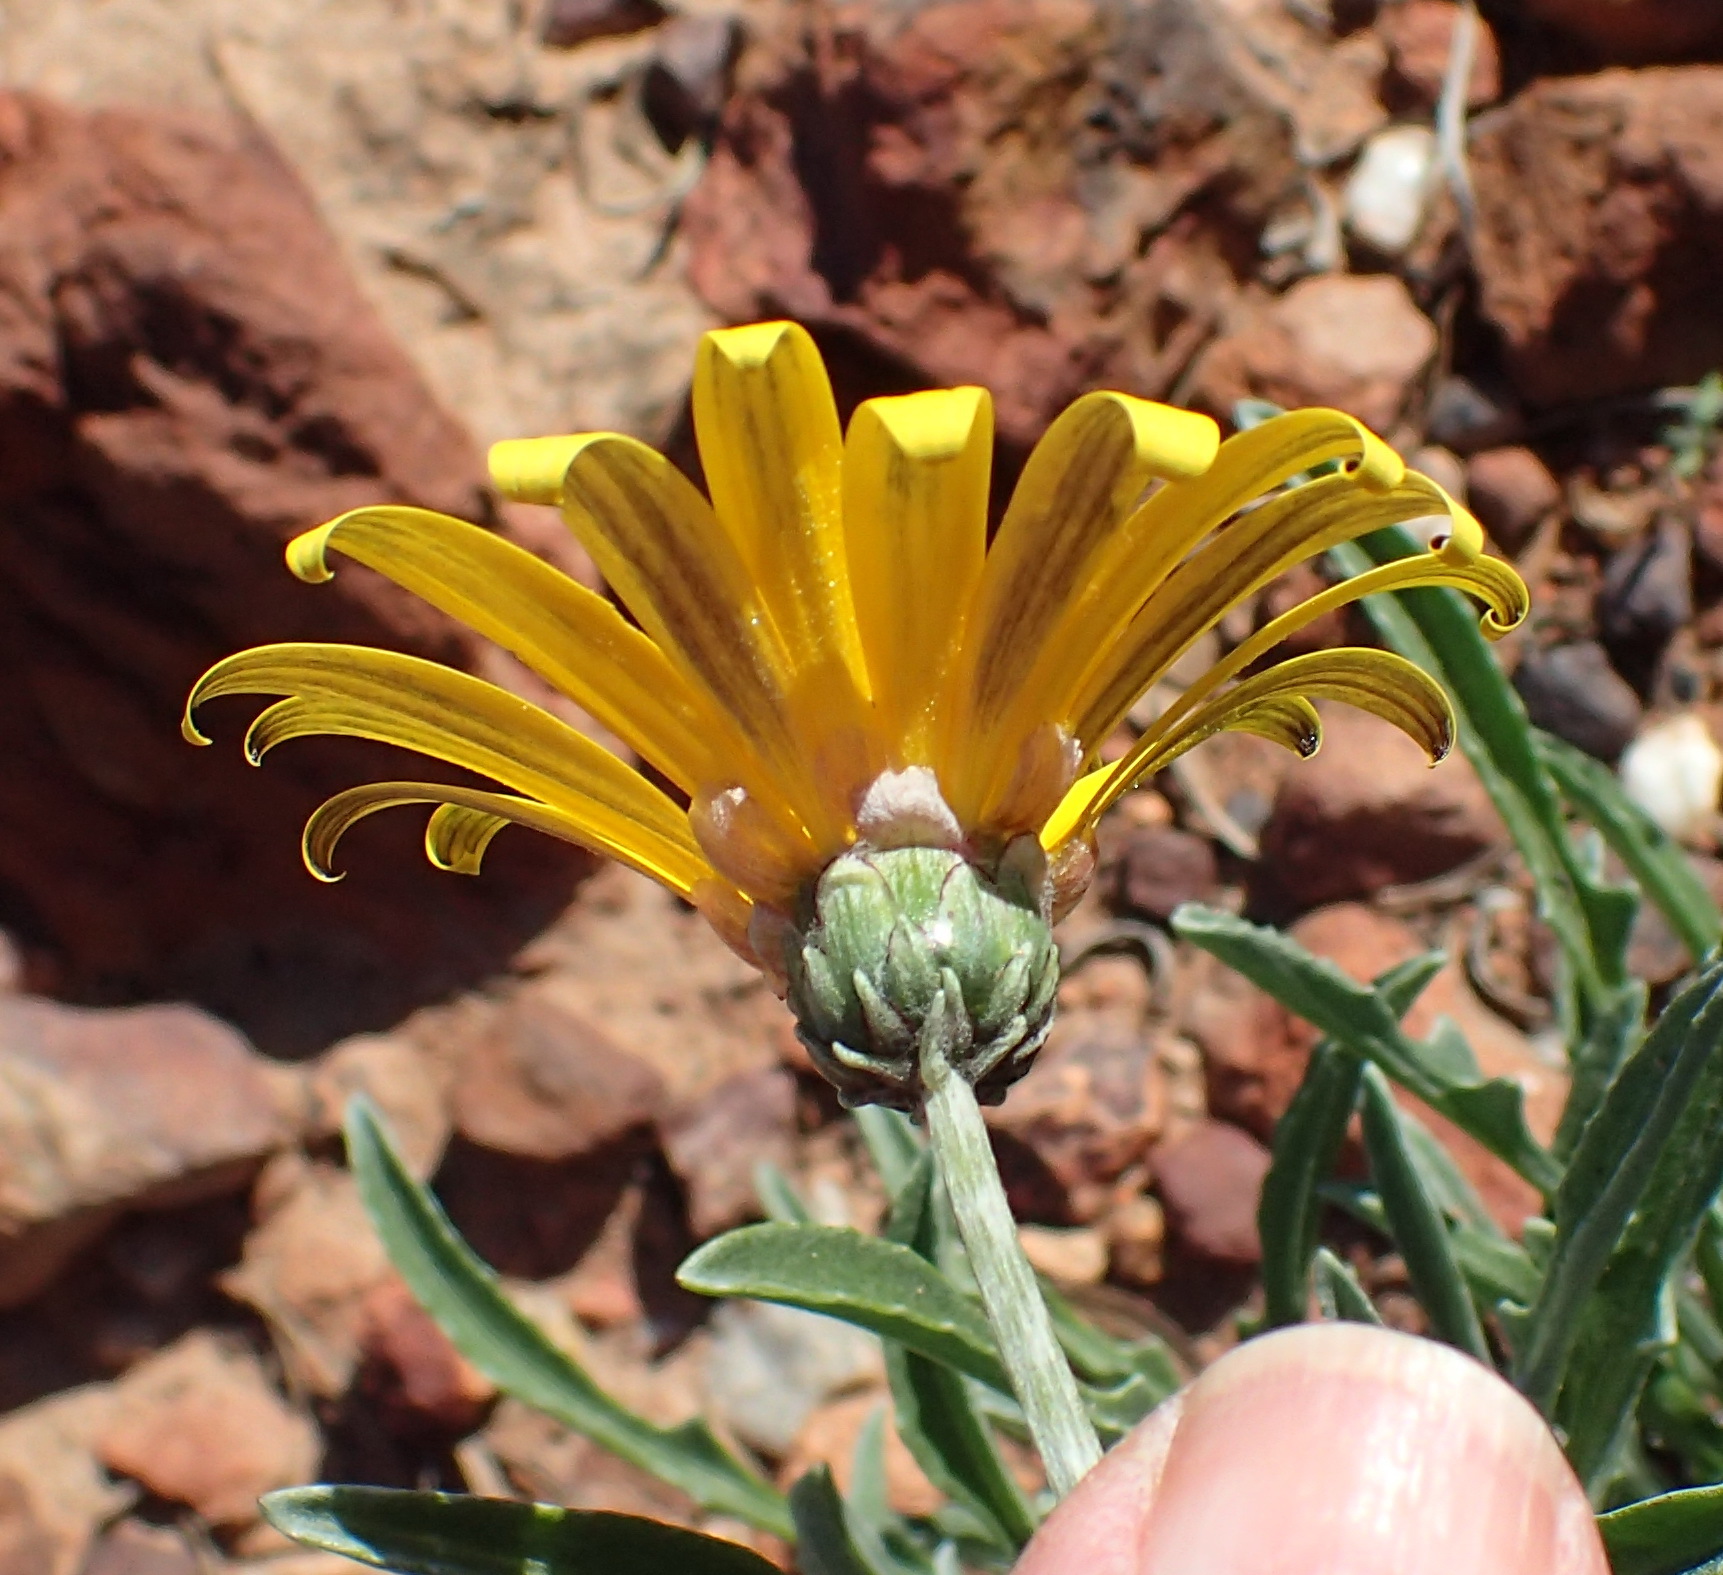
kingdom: Plantae
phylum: Tracheophyta
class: Magnoliopsida
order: Asterales
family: Asteraceae
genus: Arctotis
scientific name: Arctotis lanceolata
